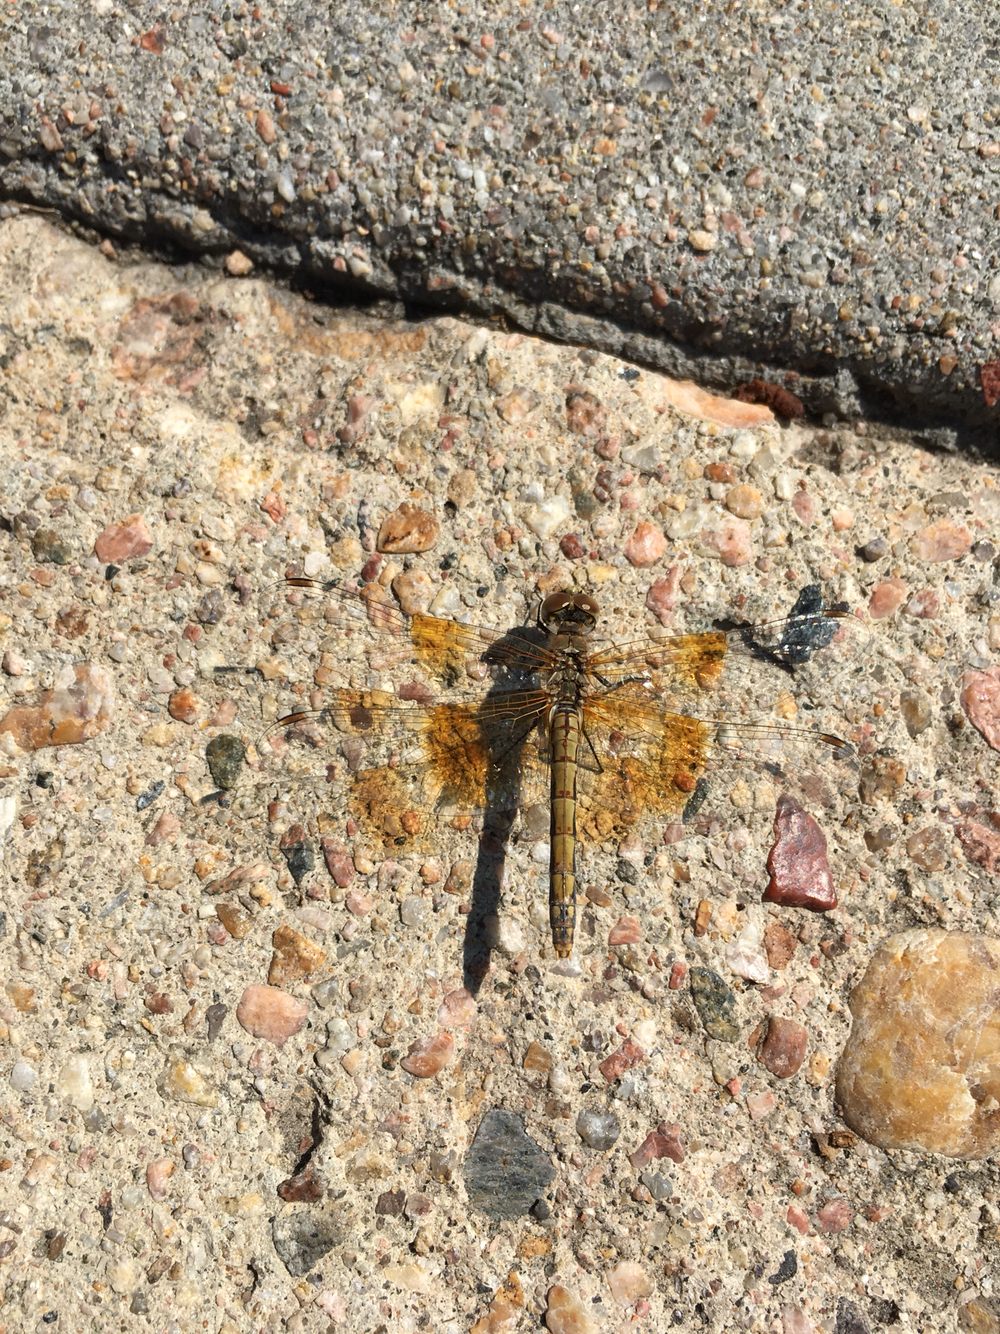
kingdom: Animalia
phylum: Arthropoda
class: Insecta
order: Odonata
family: Libellulidae
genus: Sympetrum
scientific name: Sympetrum semicinctum
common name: Band-winged meadowhawk
